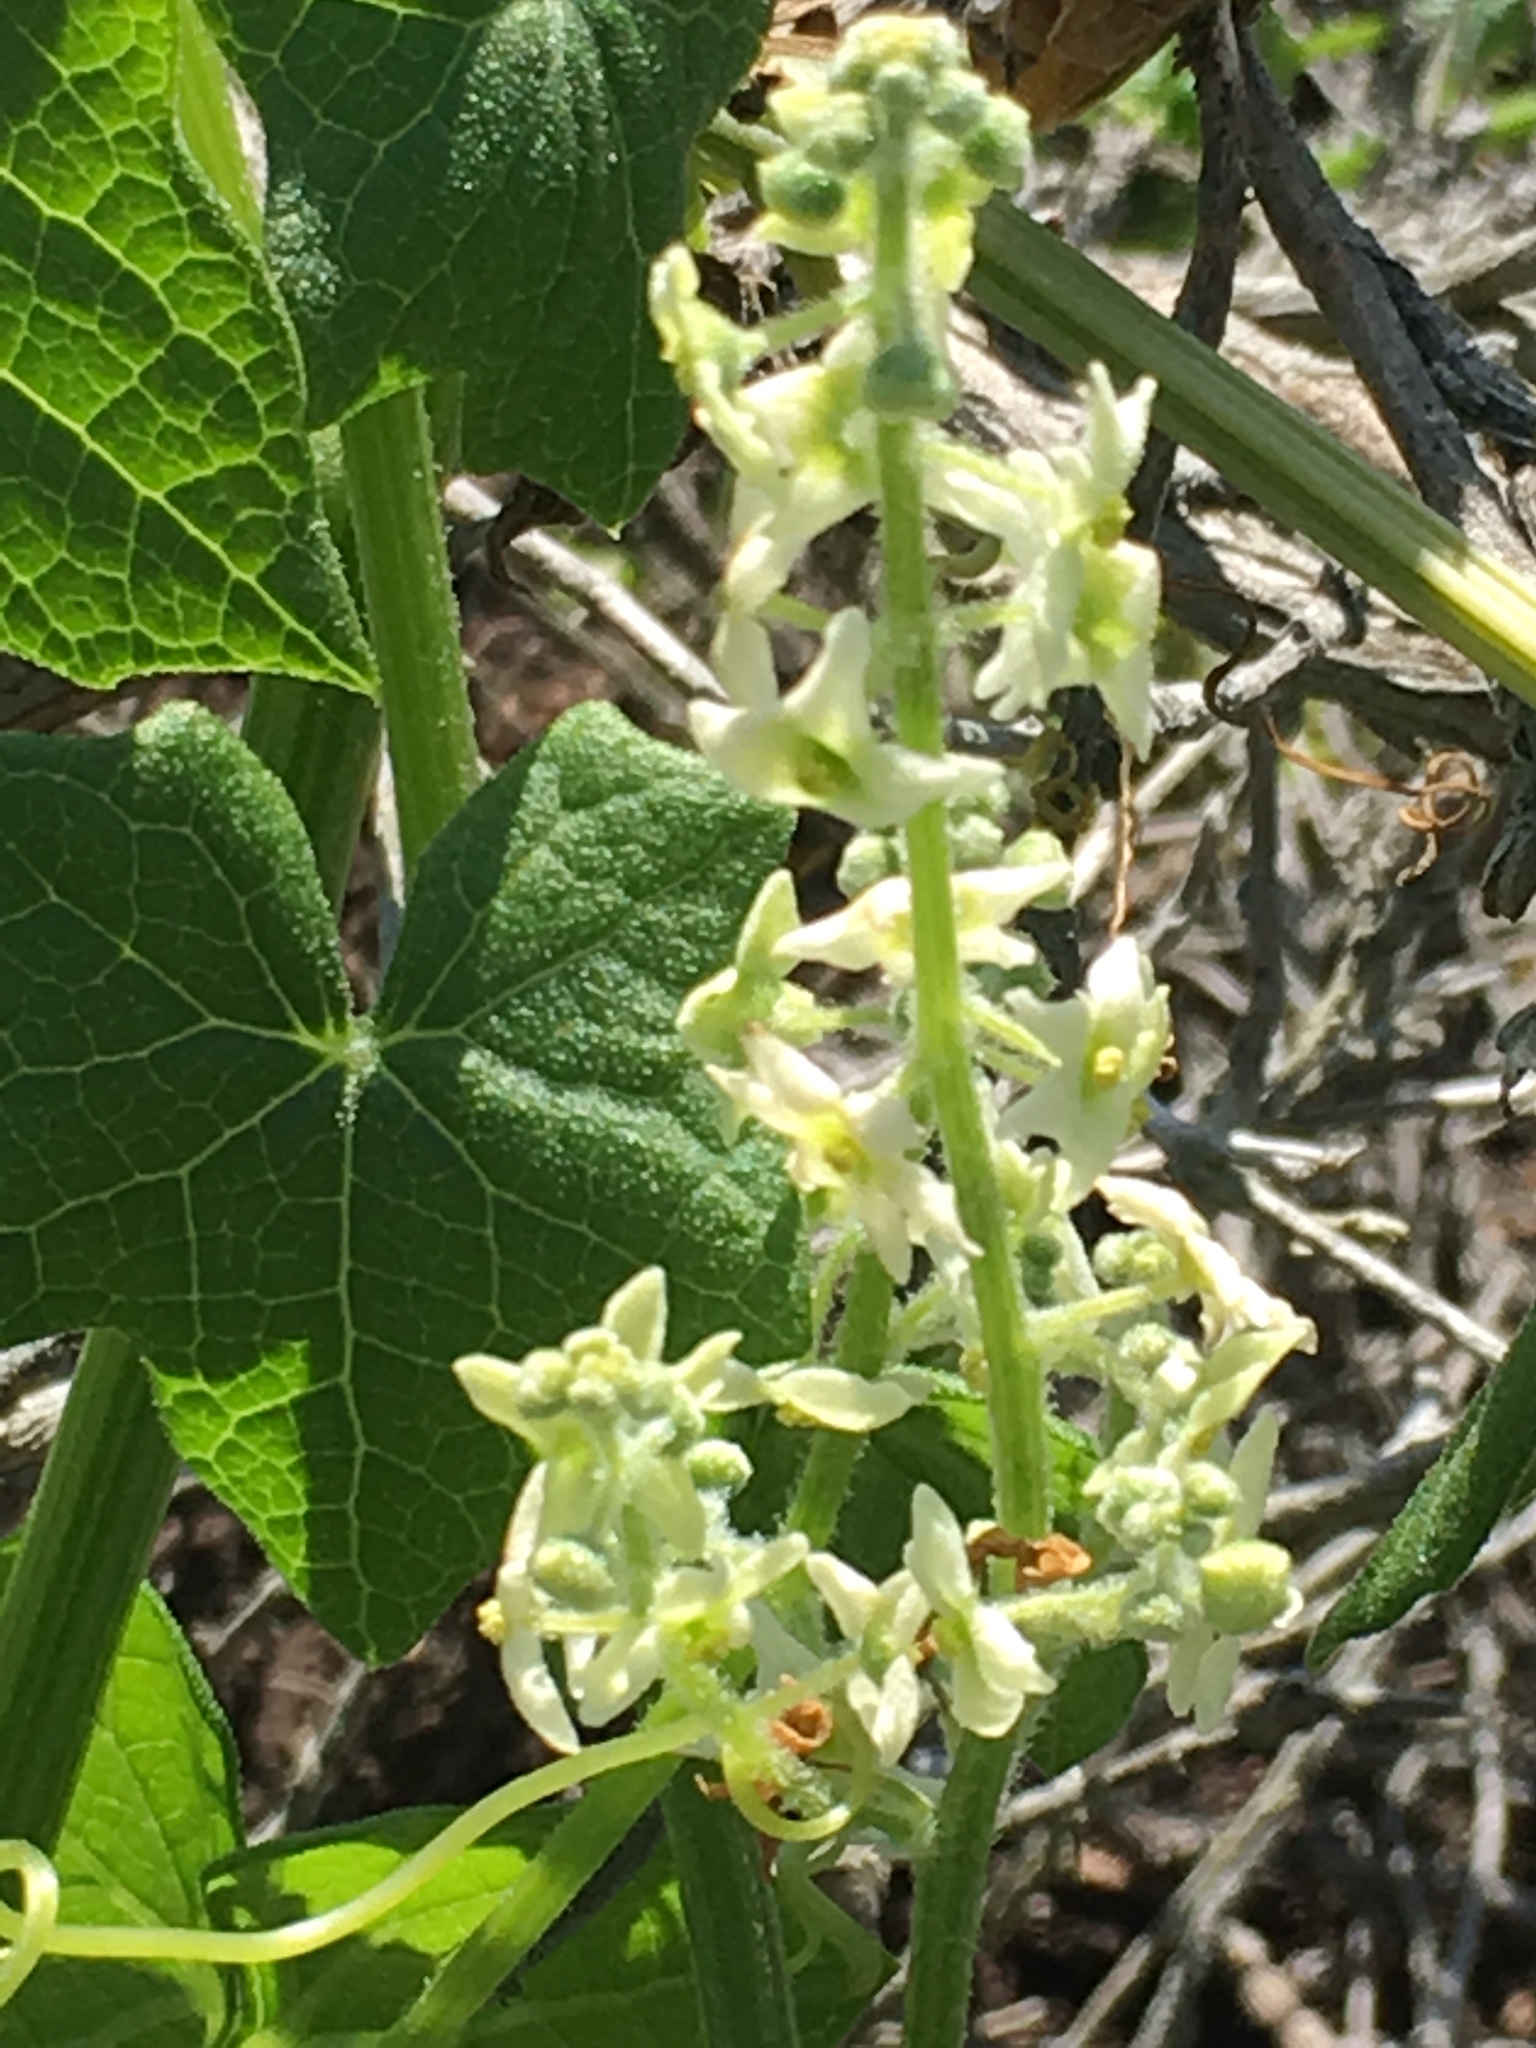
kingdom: Plantae
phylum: Tracheophyta
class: Magnoliopsida
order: Cucurbitales
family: Cucurbitaceae
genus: Marah
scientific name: Marah fabacea
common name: California manroot
